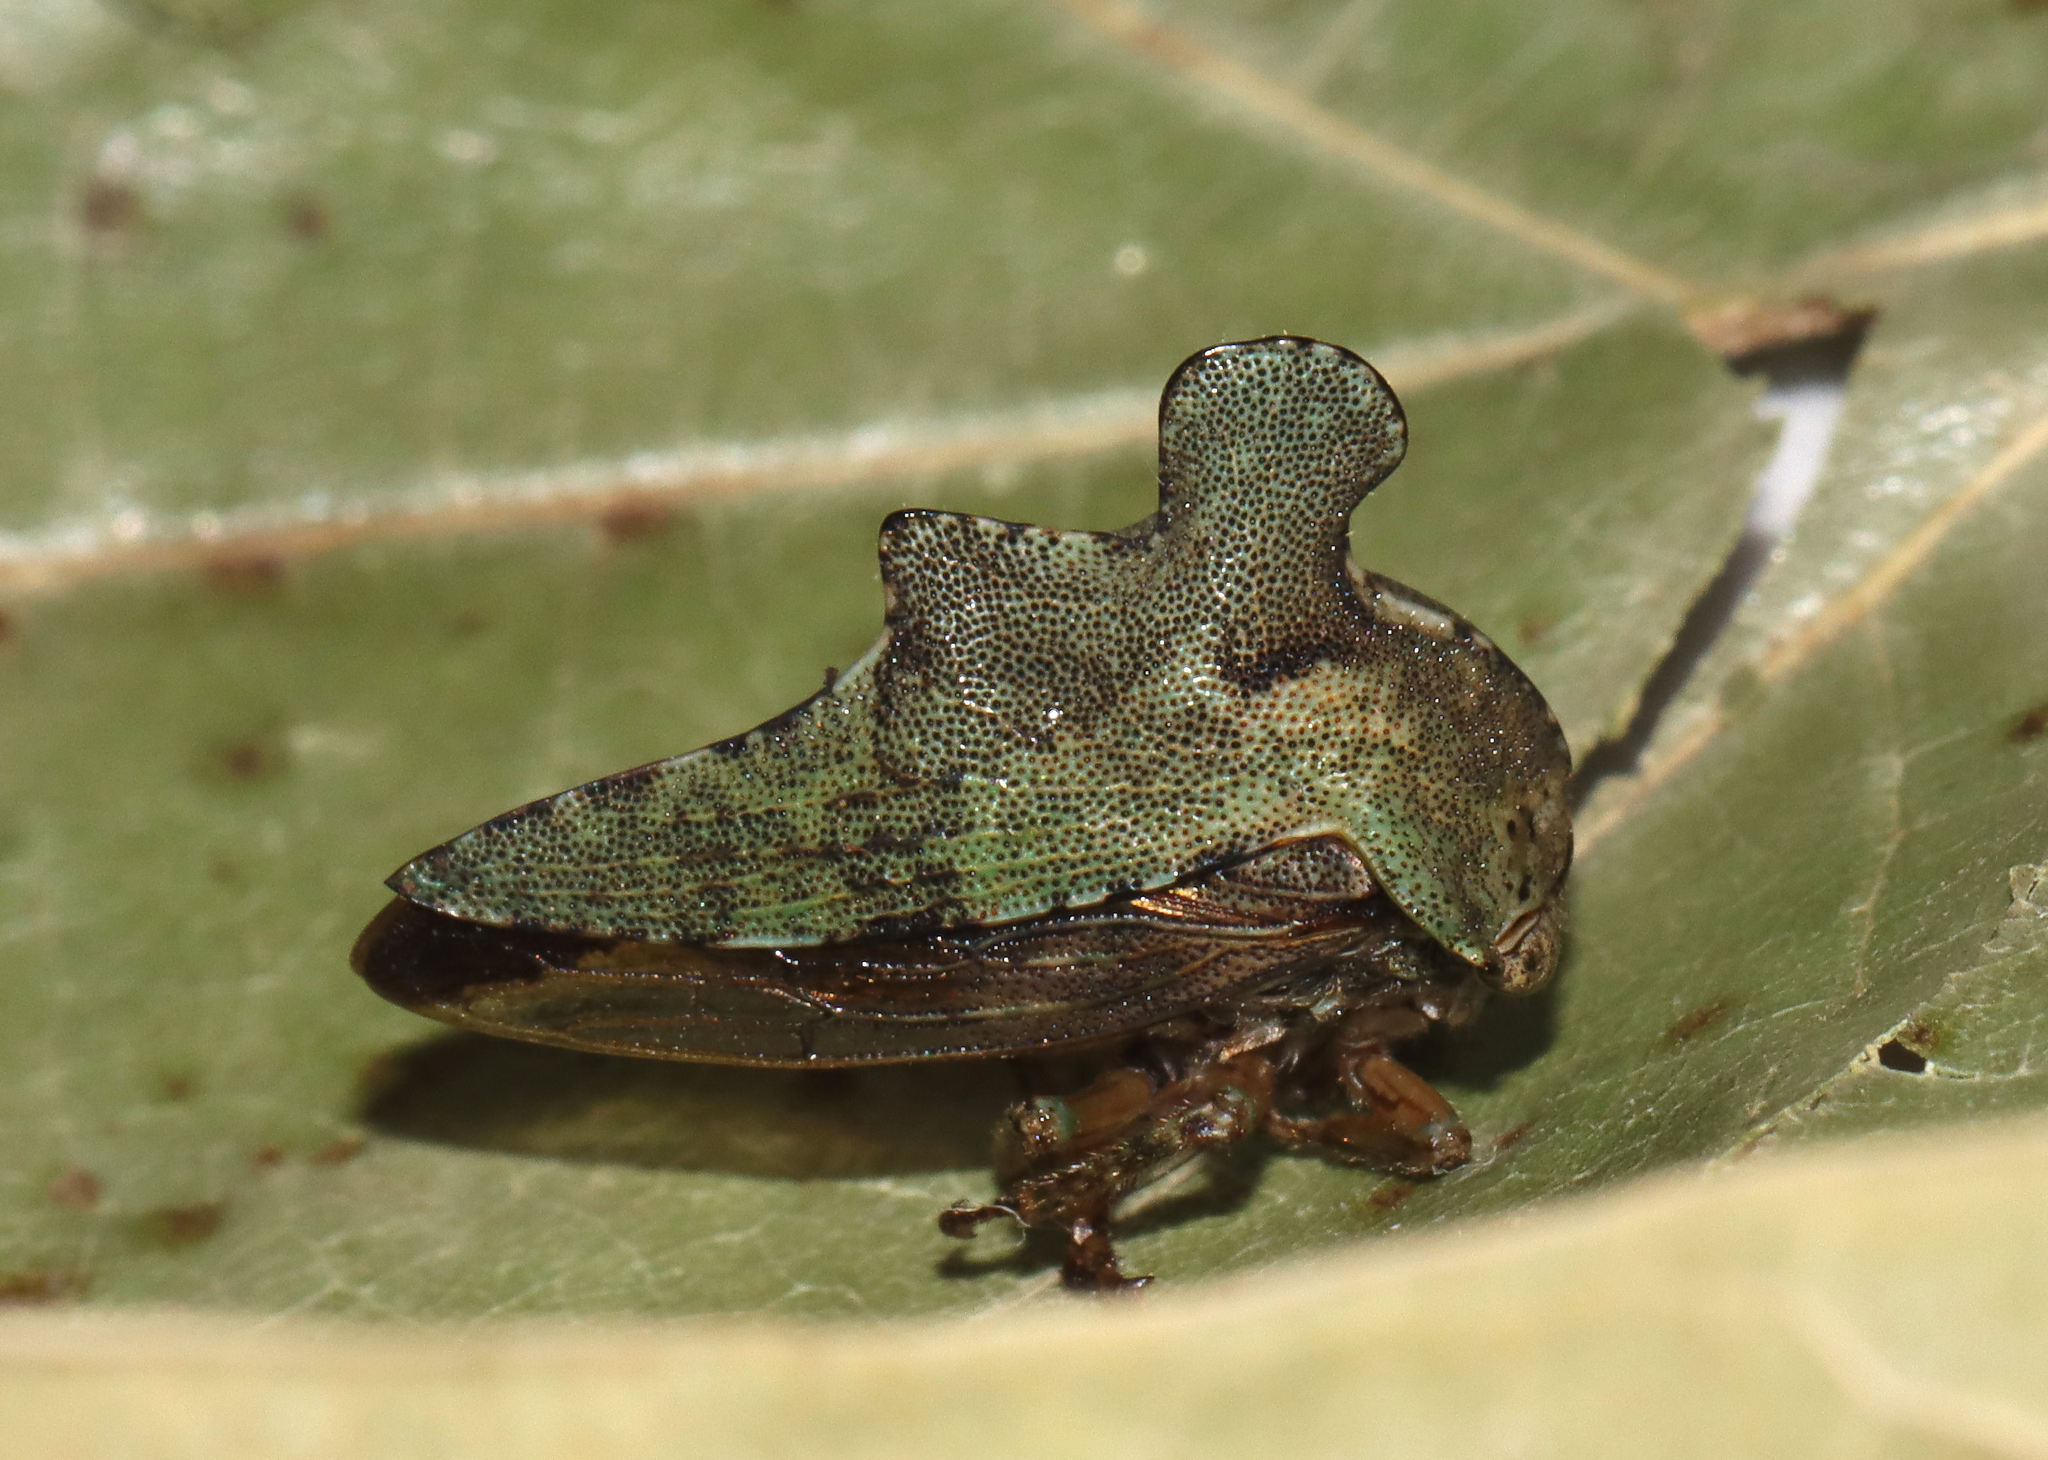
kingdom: Animalia
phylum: Arthropoda
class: Insecta
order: Hemiptera
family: Membracidae
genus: Heliria
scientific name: Heliria cristata
